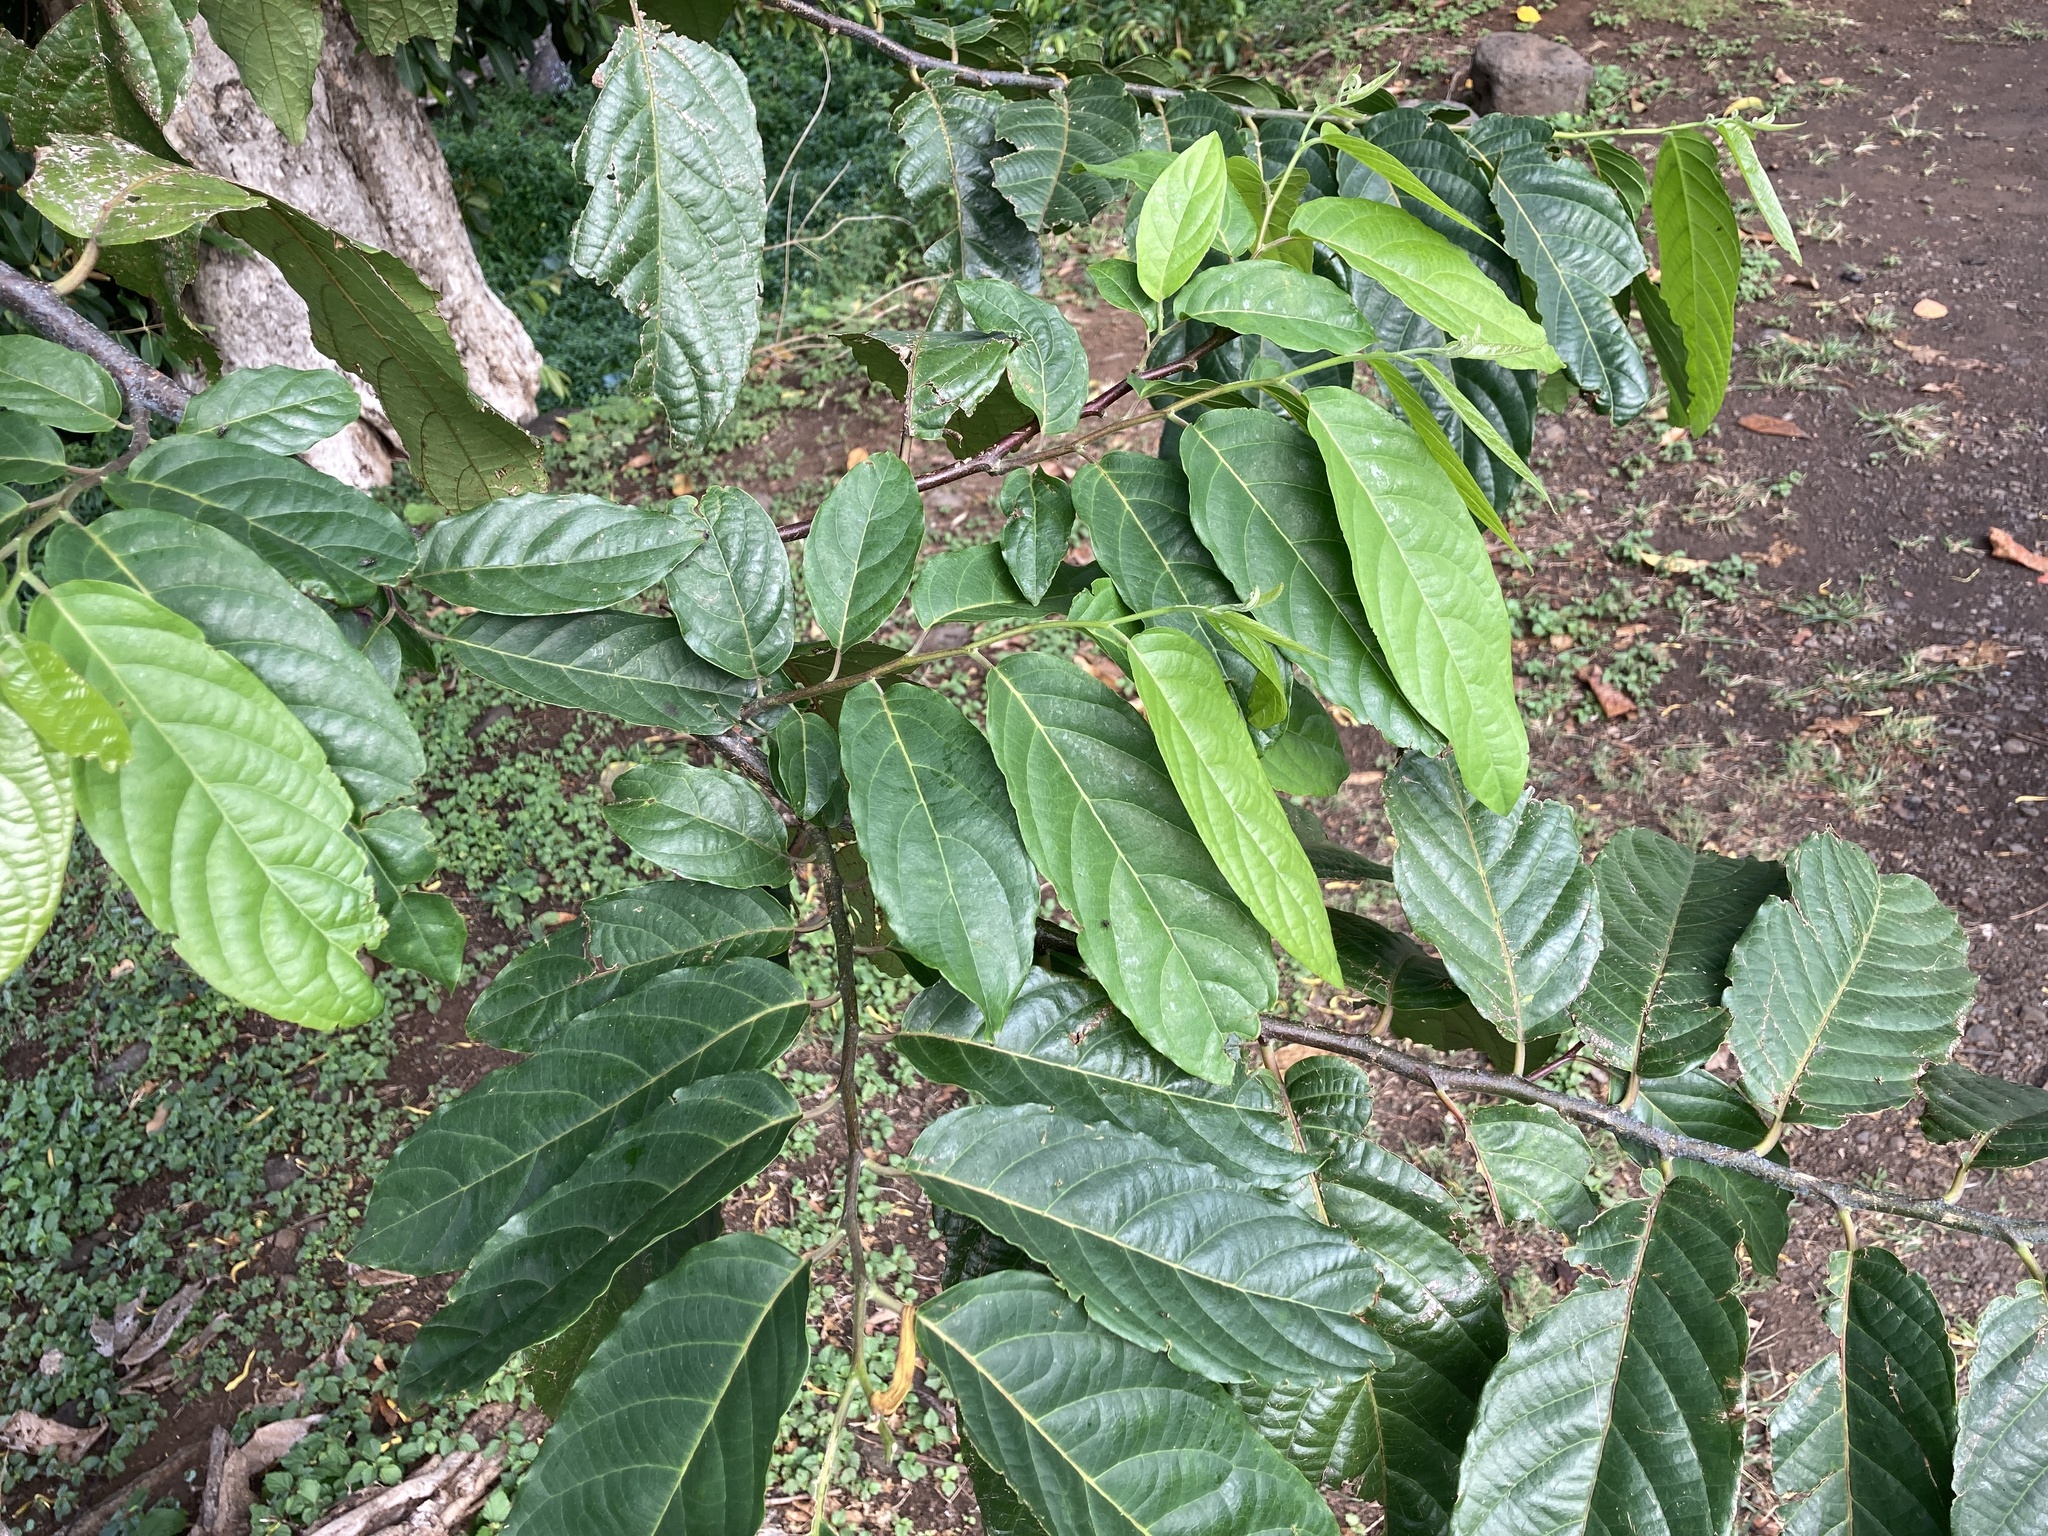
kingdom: Plantae
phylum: Tracheophyta
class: Magnoliopsida
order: Magnoliales
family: Annonaceae
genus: Cananga
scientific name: Cananga odorata
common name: Cananga tree
